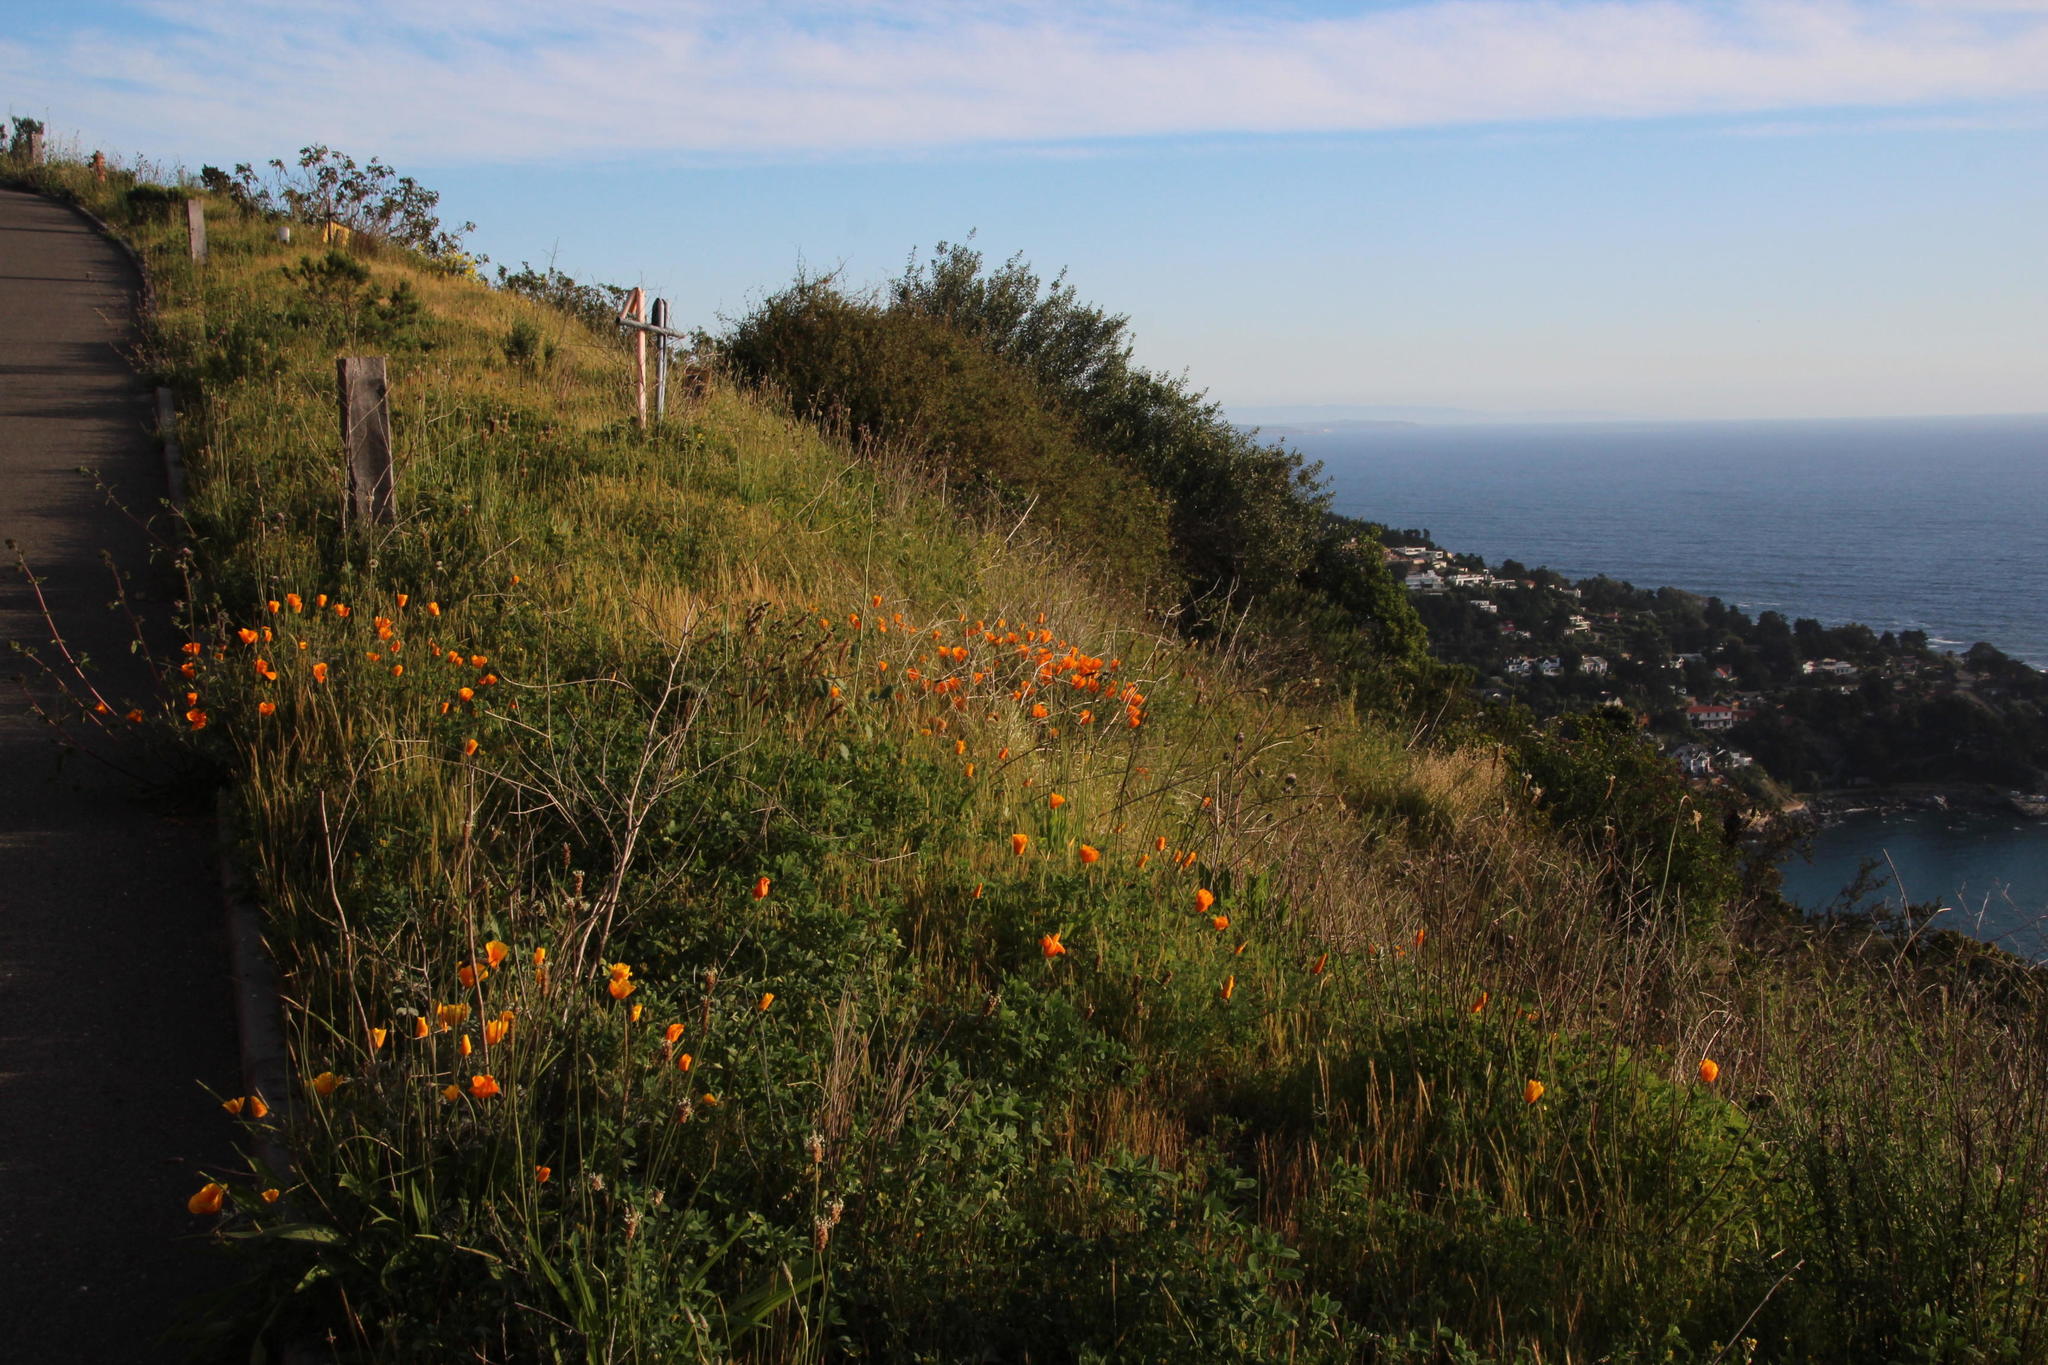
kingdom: Plantae
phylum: Tracheophyta
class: Magnoliopsida
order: Ranunculales
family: Papaveraceae
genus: Eschscholzia
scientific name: Eschscholzia californica
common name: California poppy
